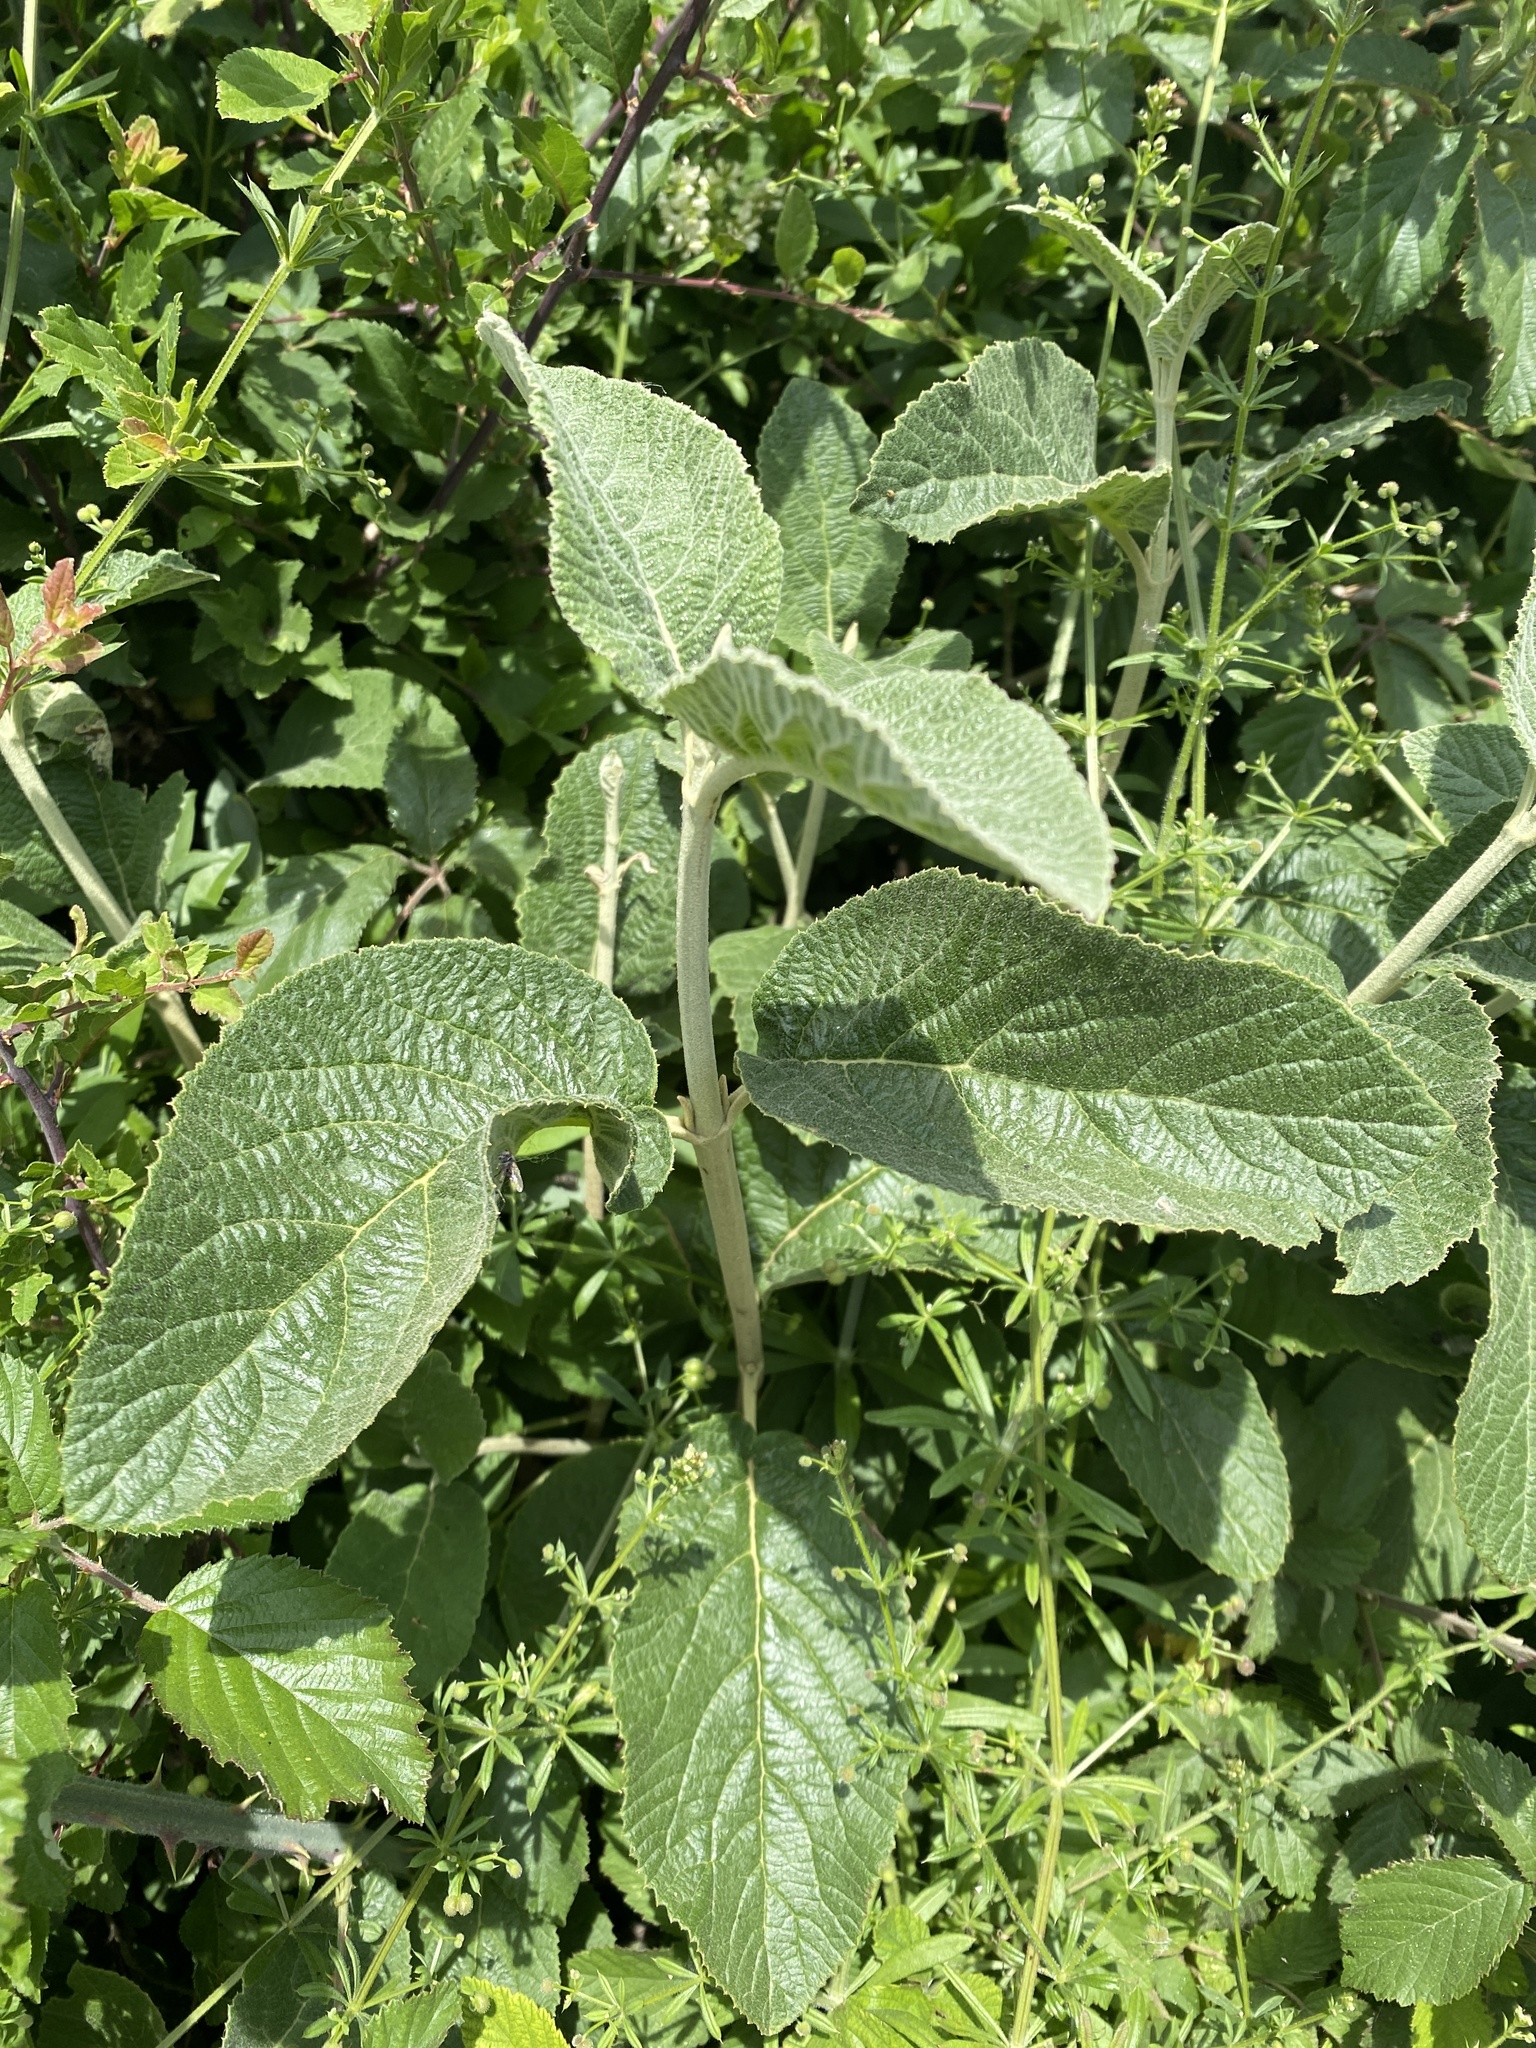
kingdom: Plantae
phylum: Tracheophyta
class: Magnoliopsida
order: Dipsacales
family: Viburnaceae
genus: Viburnum
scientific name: Viburnum lantana
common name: Wayfaring tree
